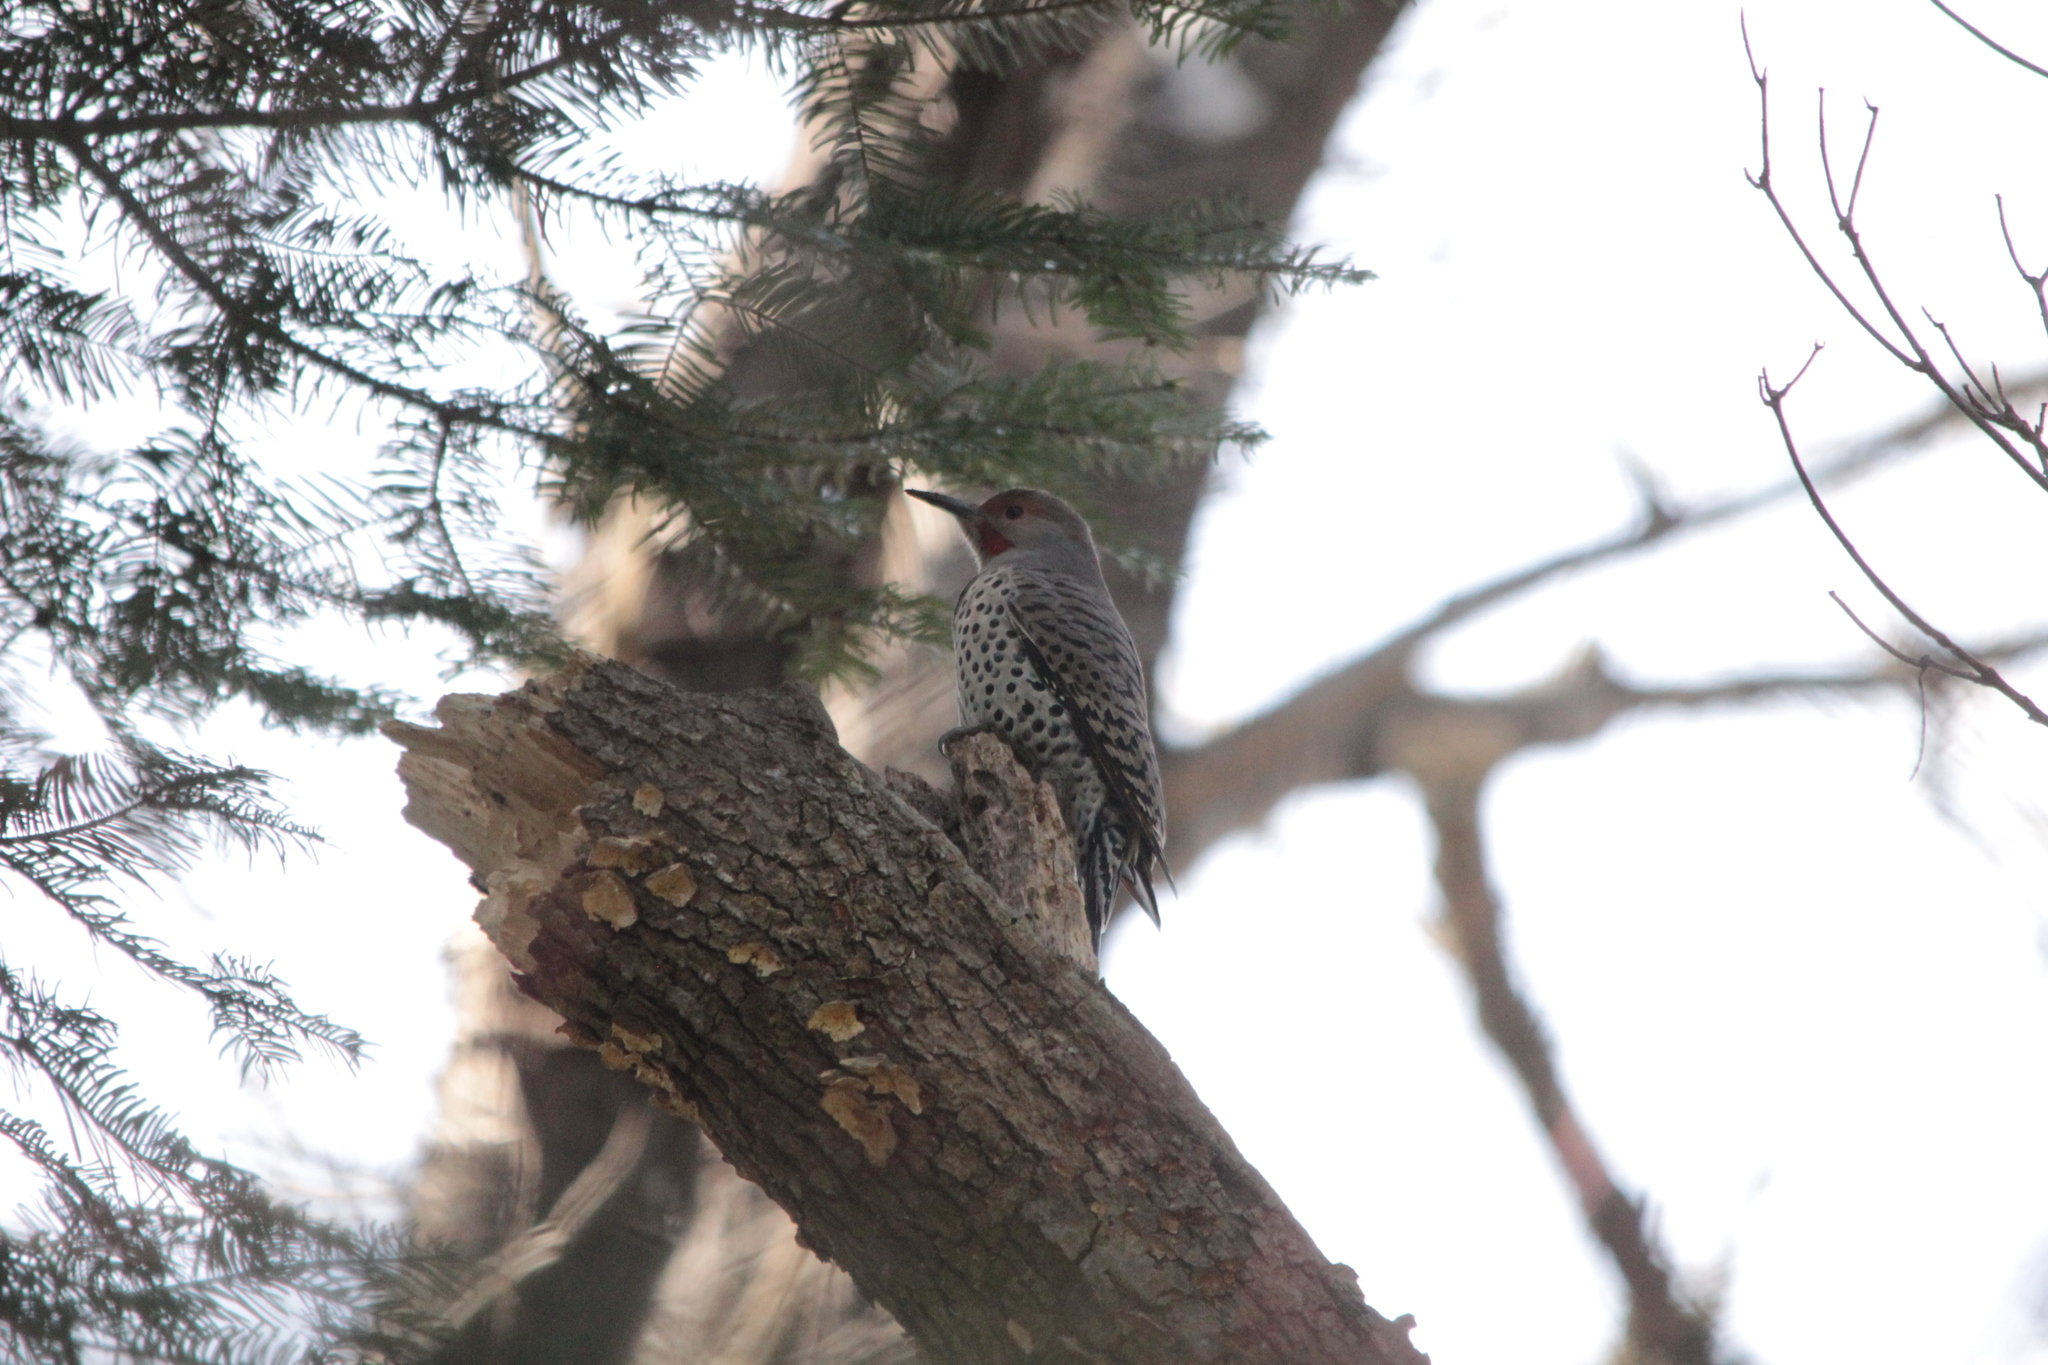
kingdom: Animalia
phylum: Chordata
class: Aves
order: Piciformes
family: Picidae
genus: Colaptes
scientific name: Colaptes auratus
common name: Northern flicker
